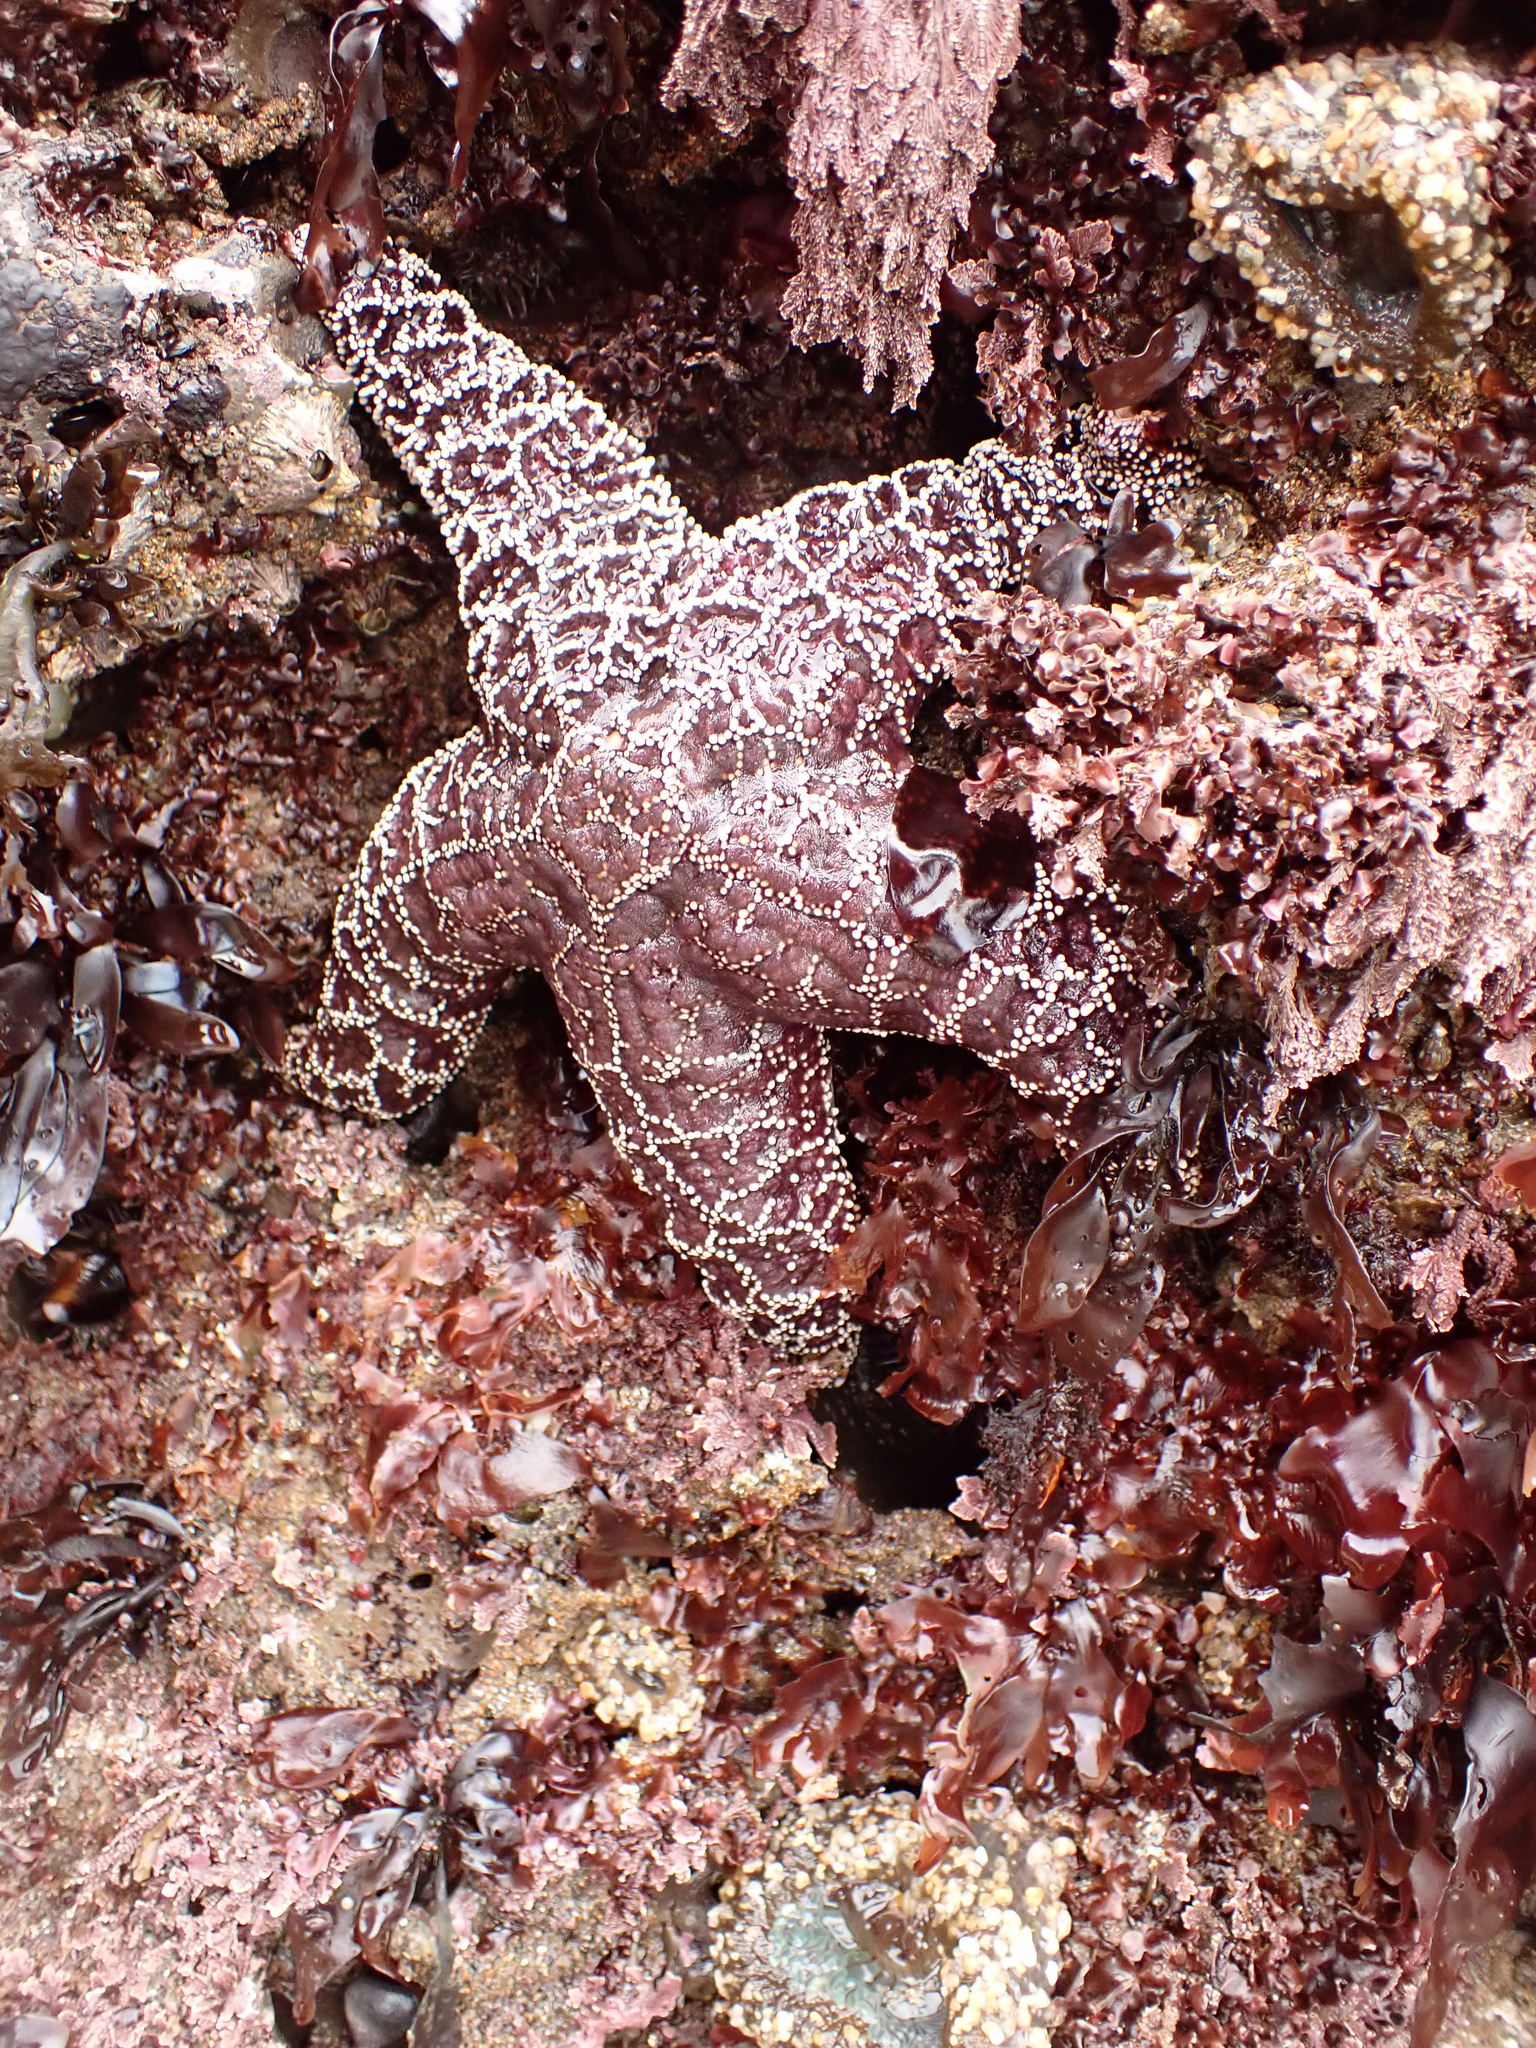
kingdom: Animalia
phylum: Echinodermata
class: Asteroidea
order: Forcipulatida
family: Asteriidae
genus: Pisaster
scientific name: Pisaster ochraceus
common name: Ochre stars
